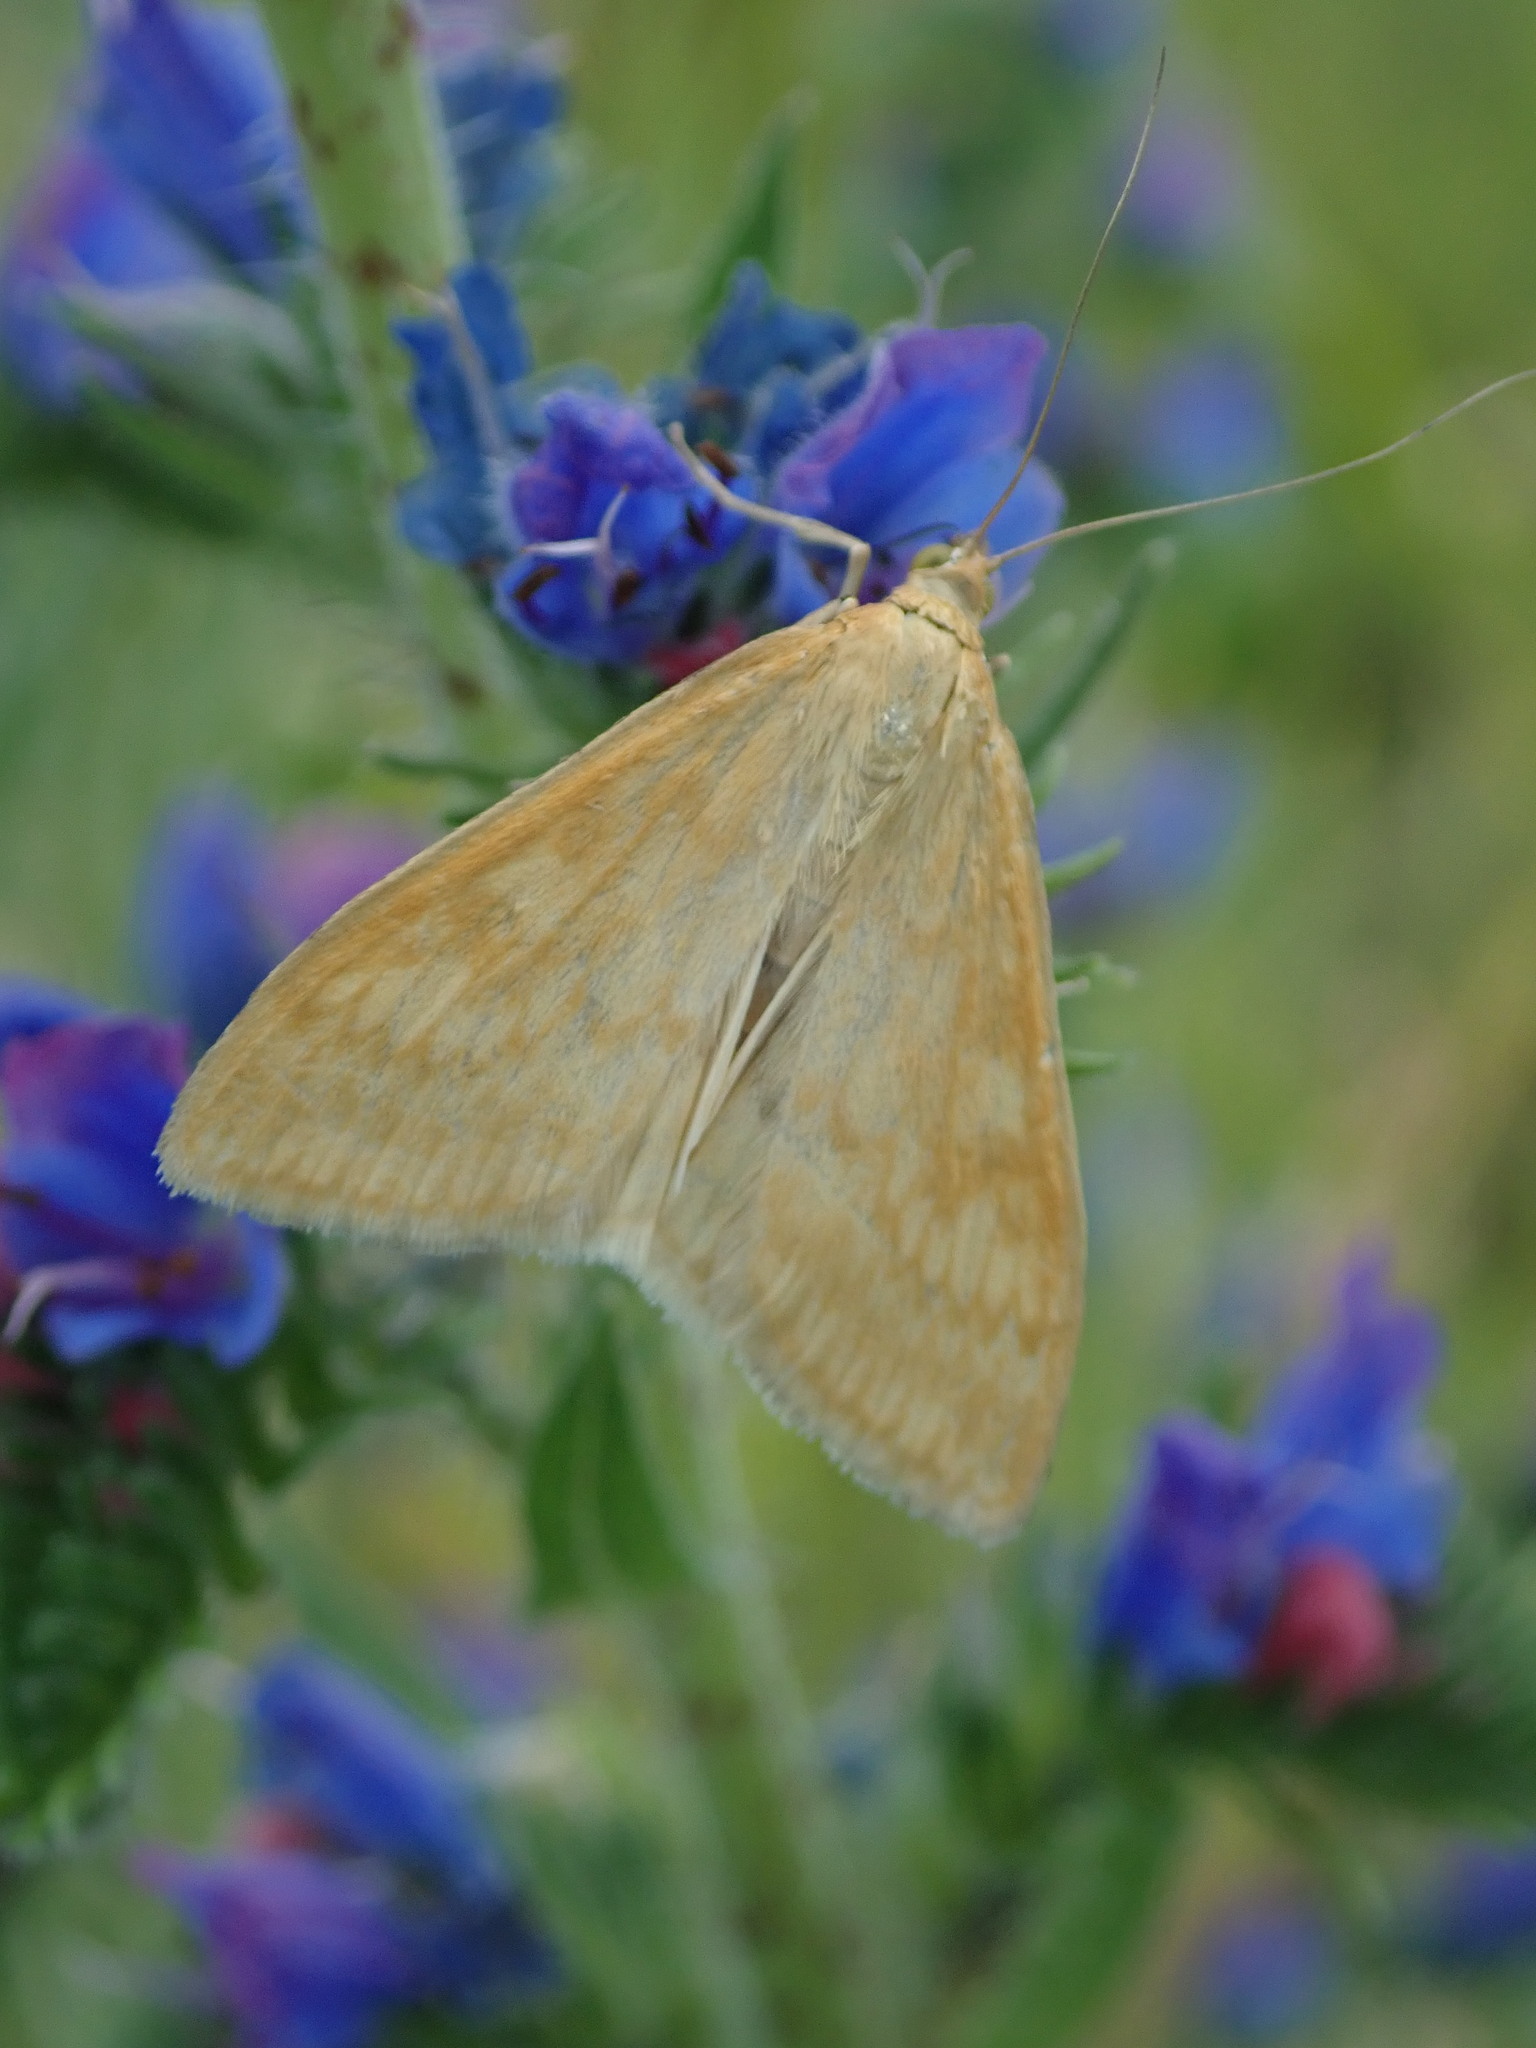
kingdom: Animalia
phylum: Arthropoda
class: Insecta
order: Lepidoptera
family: Crambidae
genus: Sitochroa
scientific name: Sitochroa verticalis
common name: Lesser pearl
